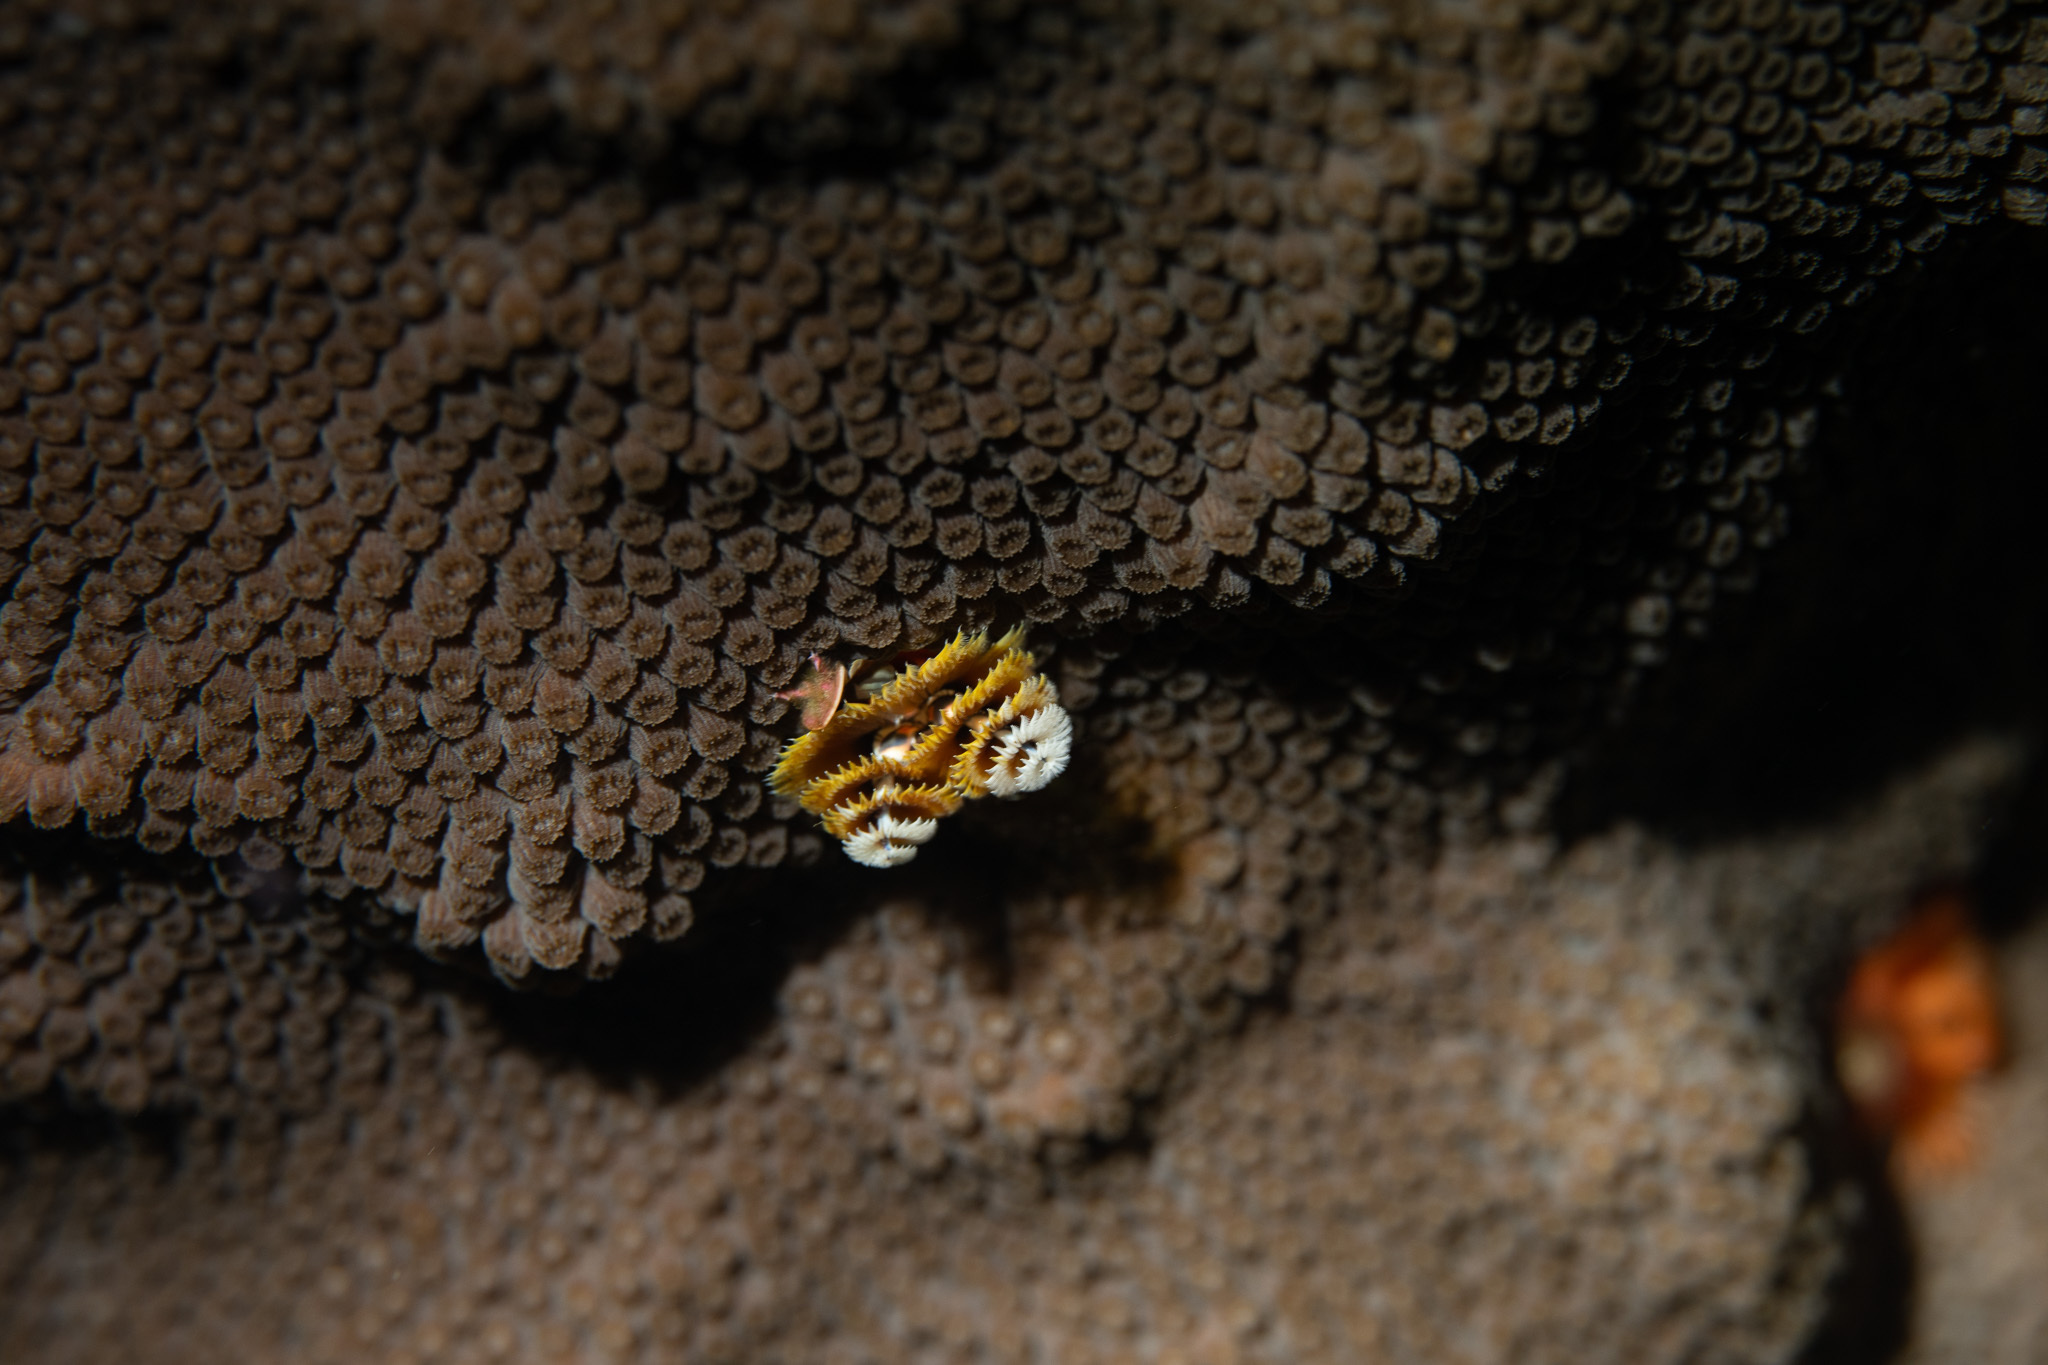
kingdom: Animalia
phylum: Annelida
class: Polychaeta
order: Sabellida
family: Serpulidae
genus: Spirobranchus
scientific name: Spirobranchus giganteus
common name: Christmas tree worm
